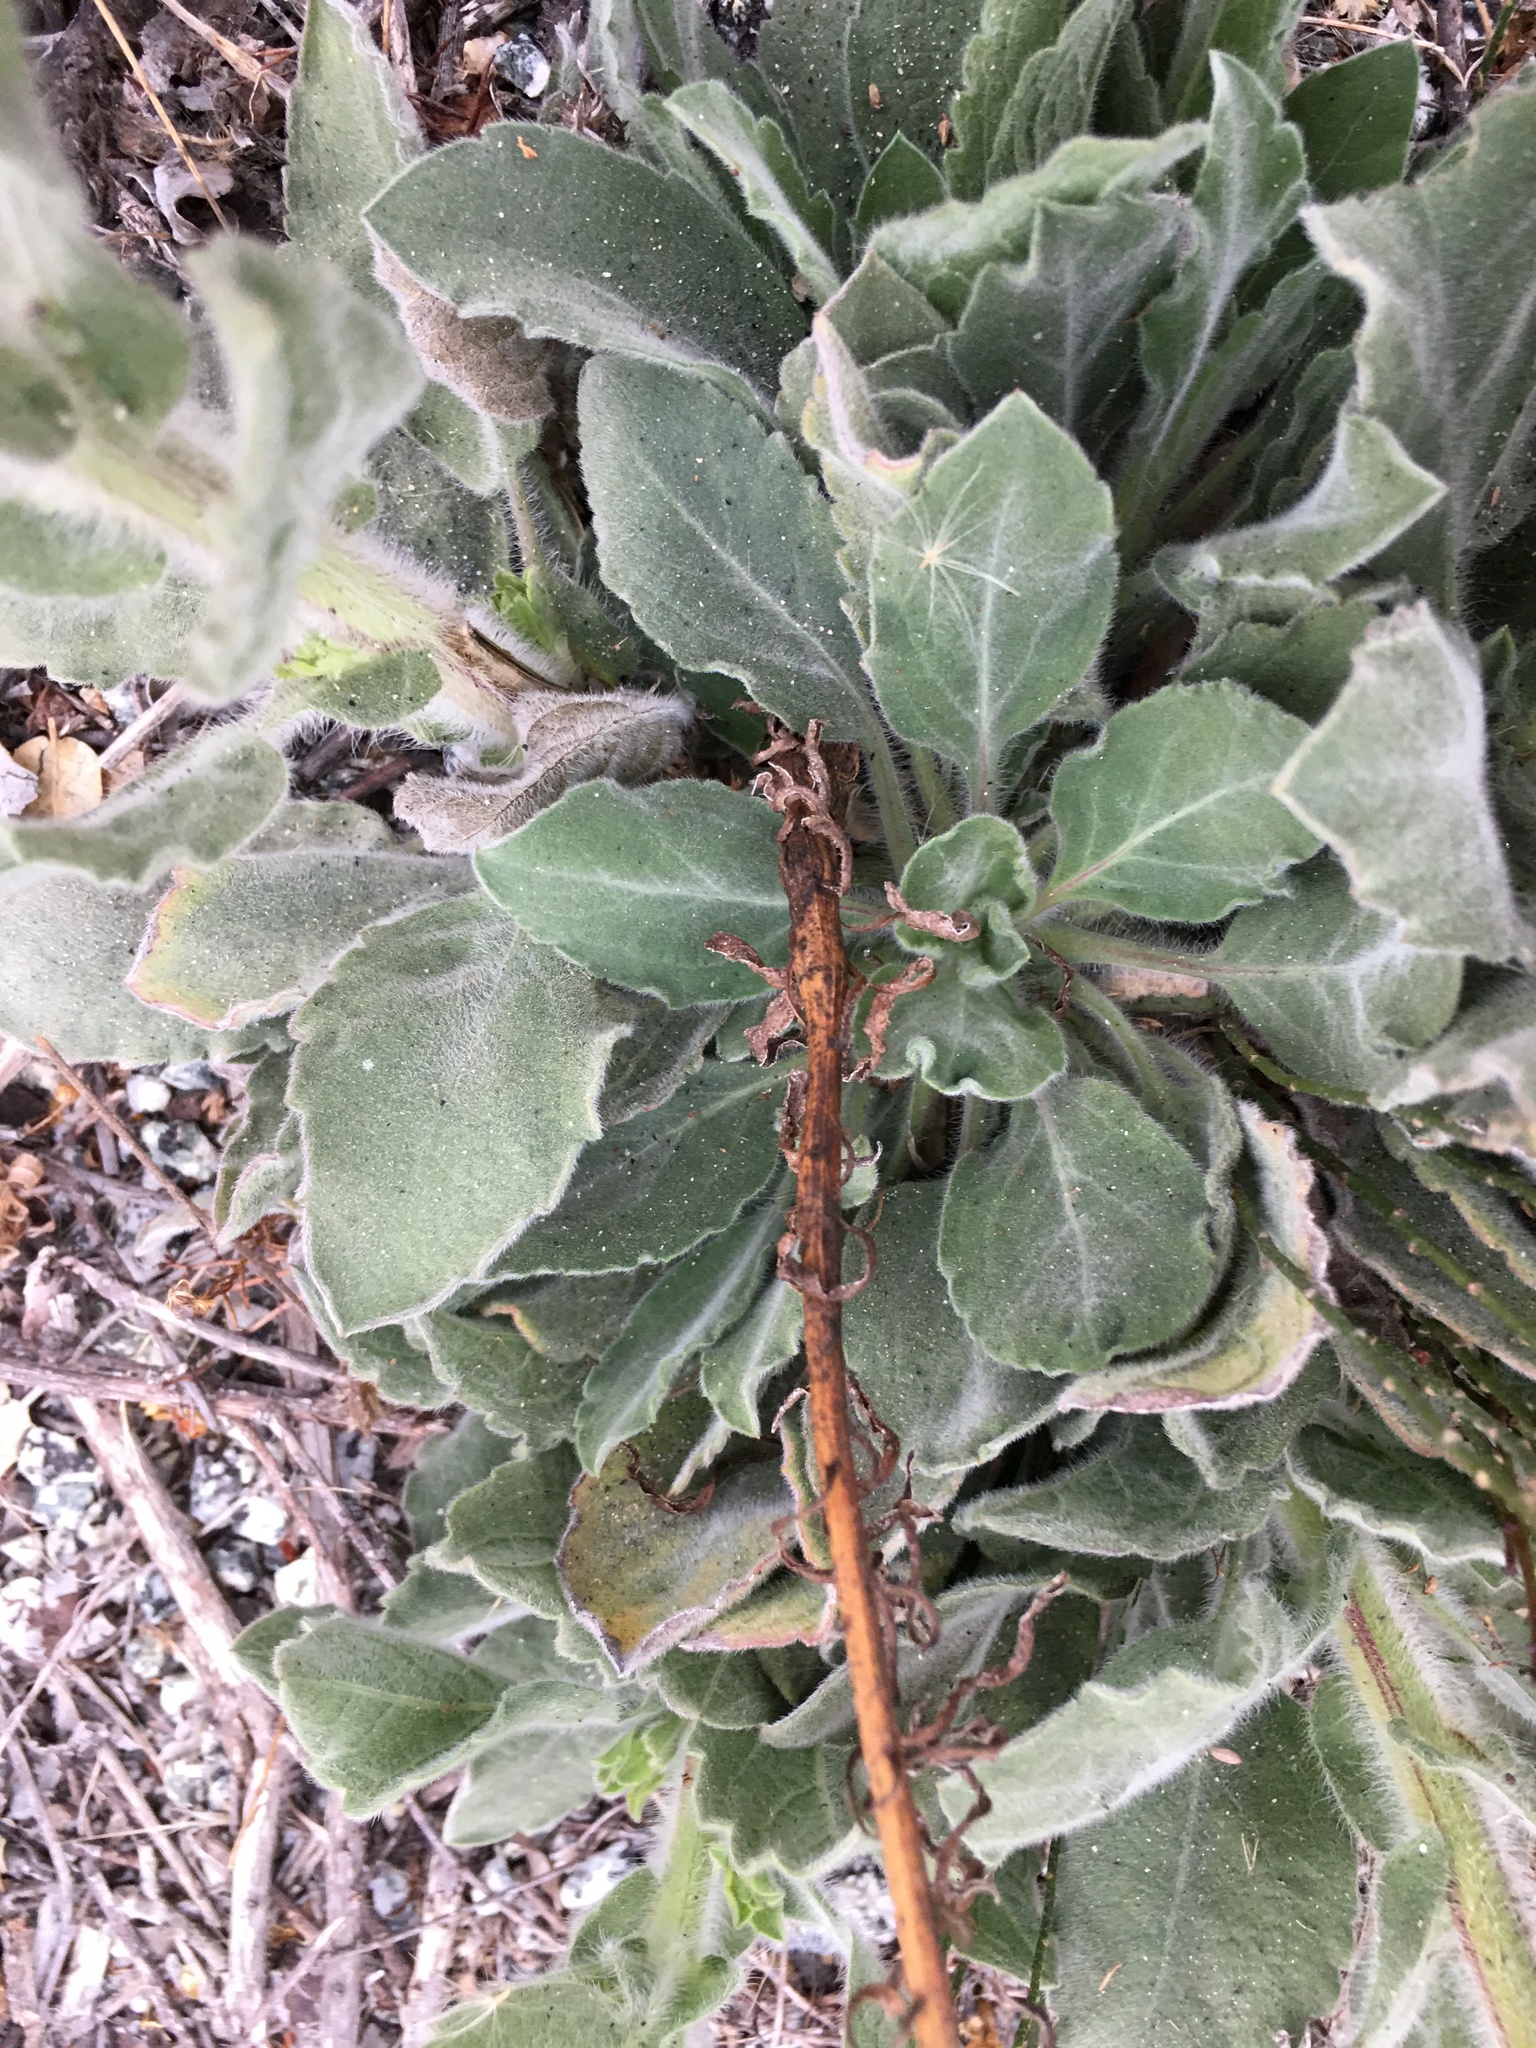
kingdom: Plantae
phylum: Tracheophyta
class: Magnoliopsida
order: Asterales
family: Asteraceae
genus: Heterotheca
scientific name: Heterotheca grandiflora
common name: Telegraphweed
